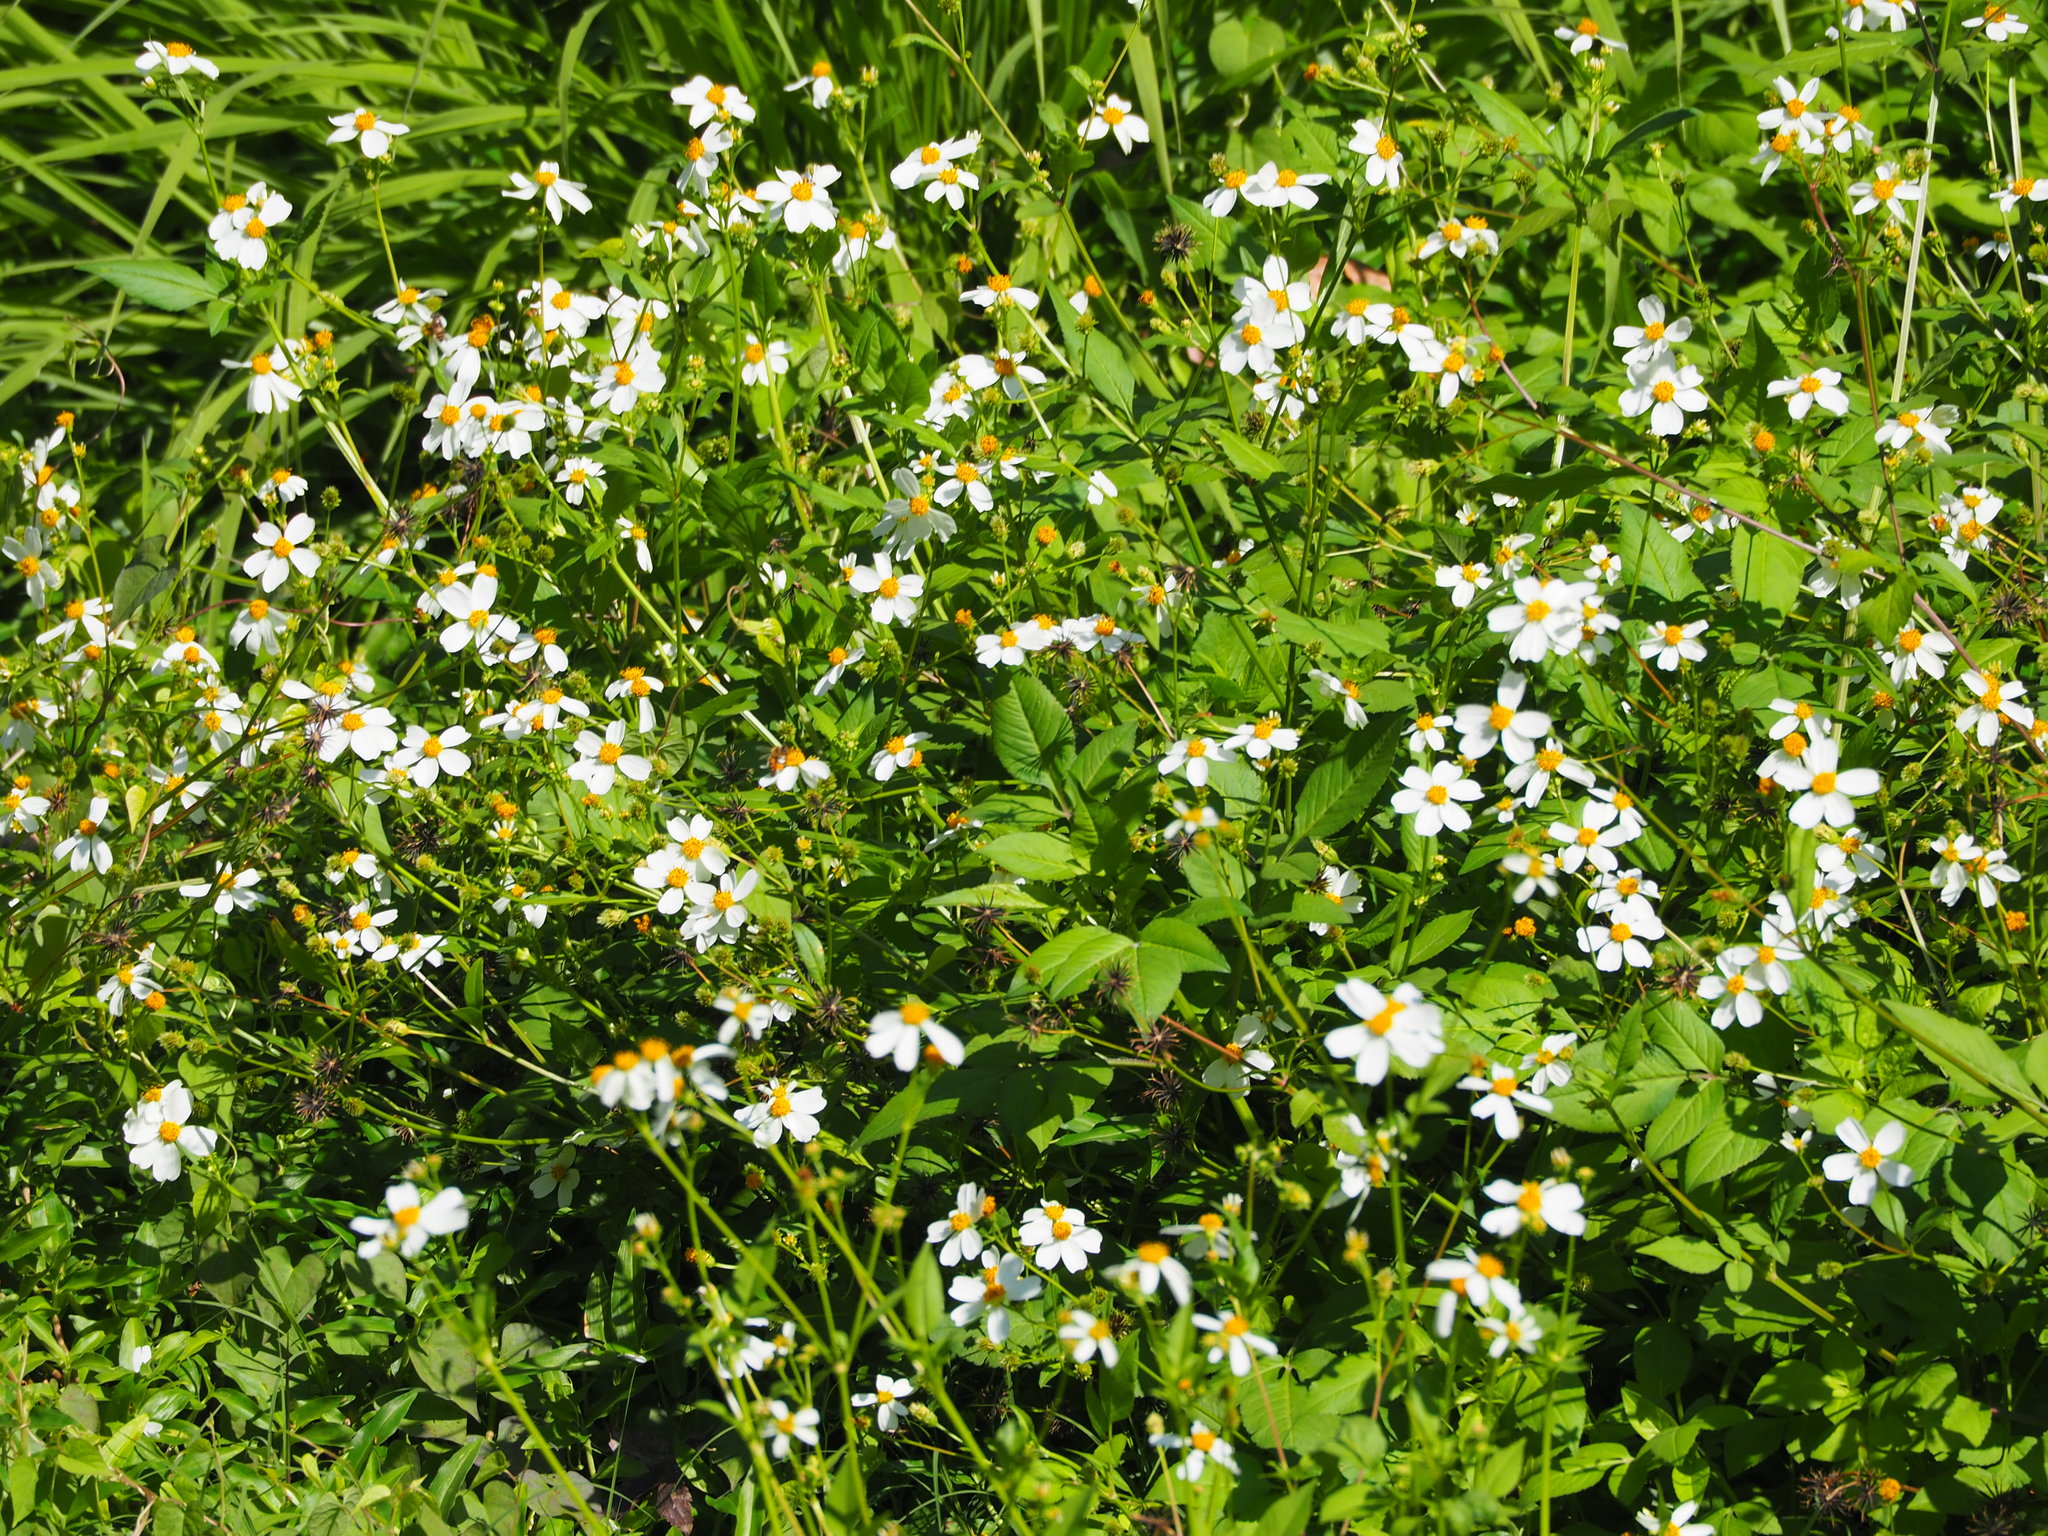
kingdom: Plantae
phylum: Tracheophyta
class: Magnoliopsida
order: Asterales
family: Asteraceae
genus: Bidens
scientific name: Bidens alba
